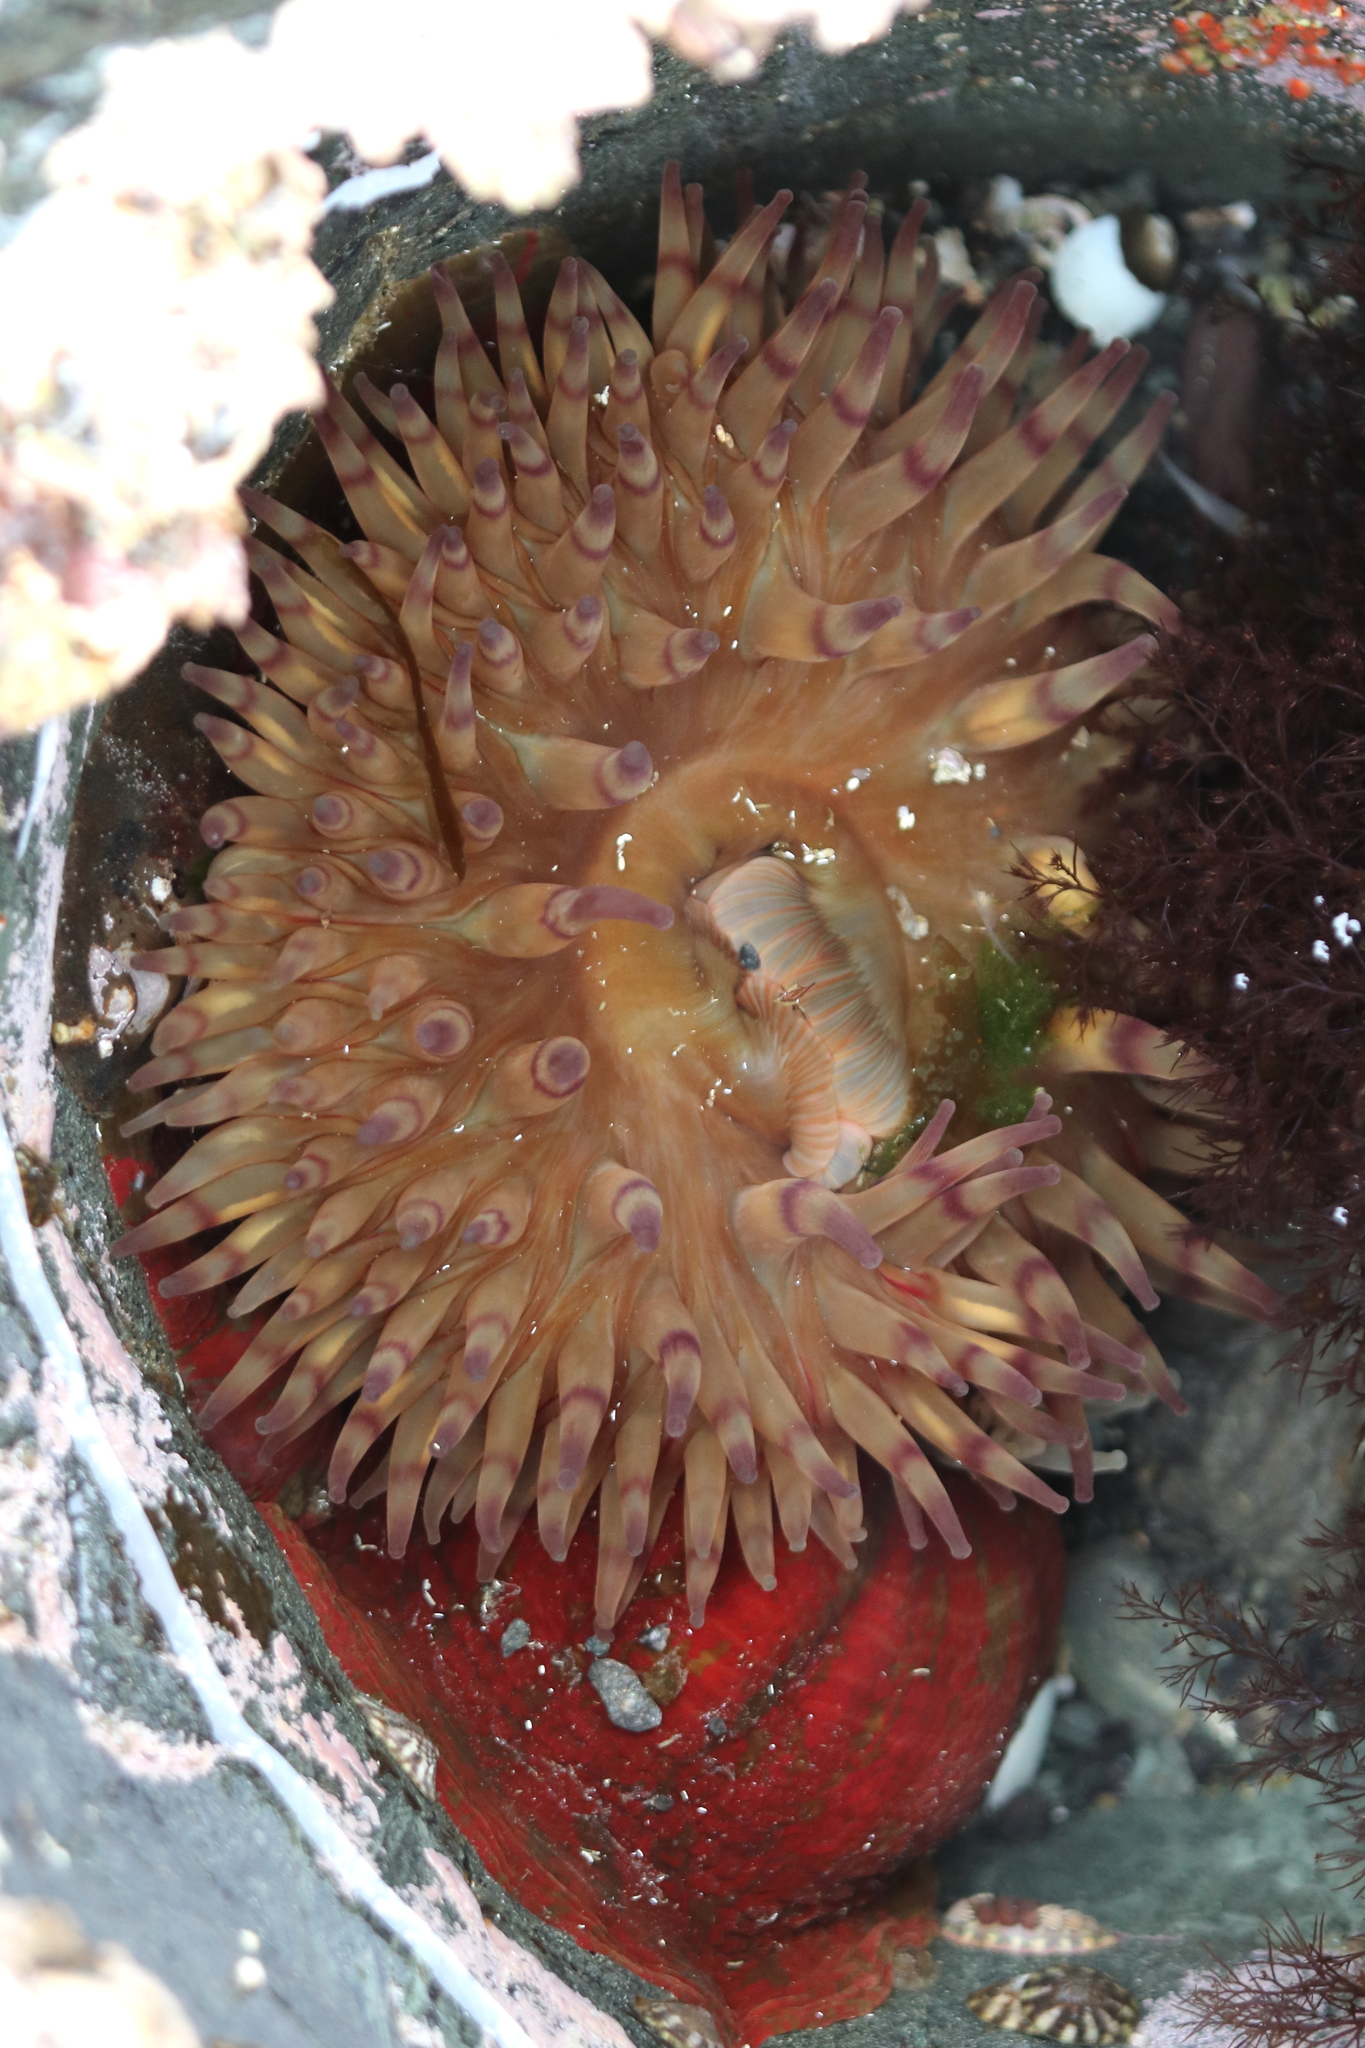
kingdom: Animalia
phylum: Cnidaria
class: Anthozoa
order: Actiniaria
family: Actiniidae
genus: Urticina
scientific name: Urticina grebelnyi
